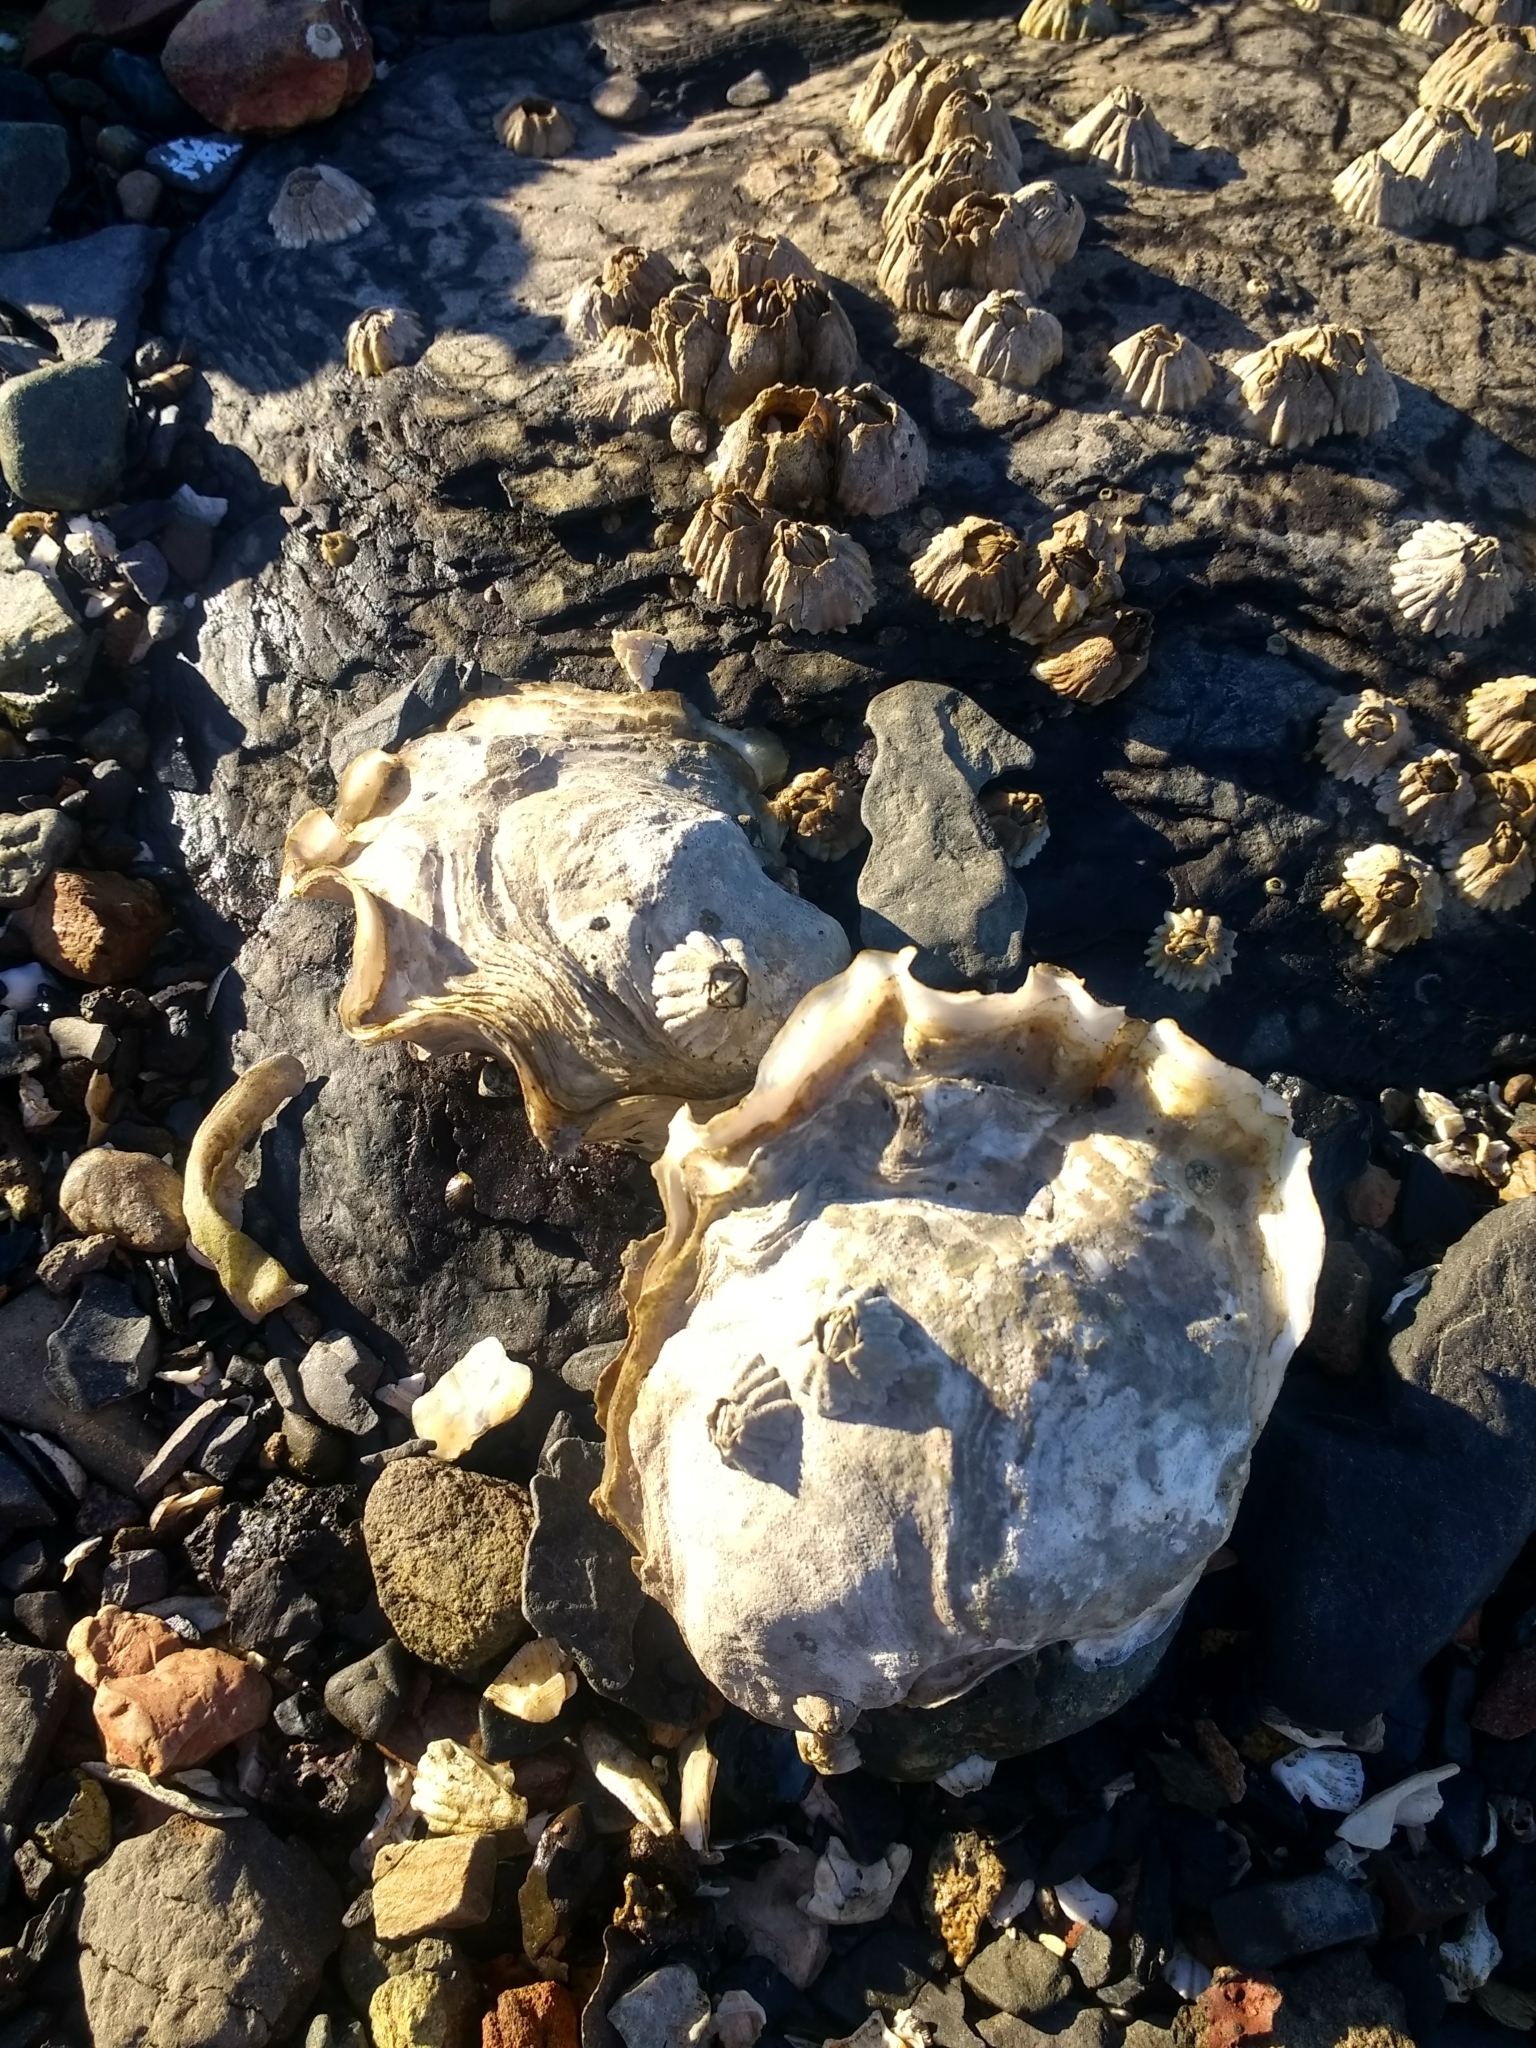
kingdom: Animalia
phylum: Mollusca
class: Bivalvia
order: Ostreida
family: Ostreidae
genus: Magallana
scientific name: Magallana gigas
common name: Pacific oyster
